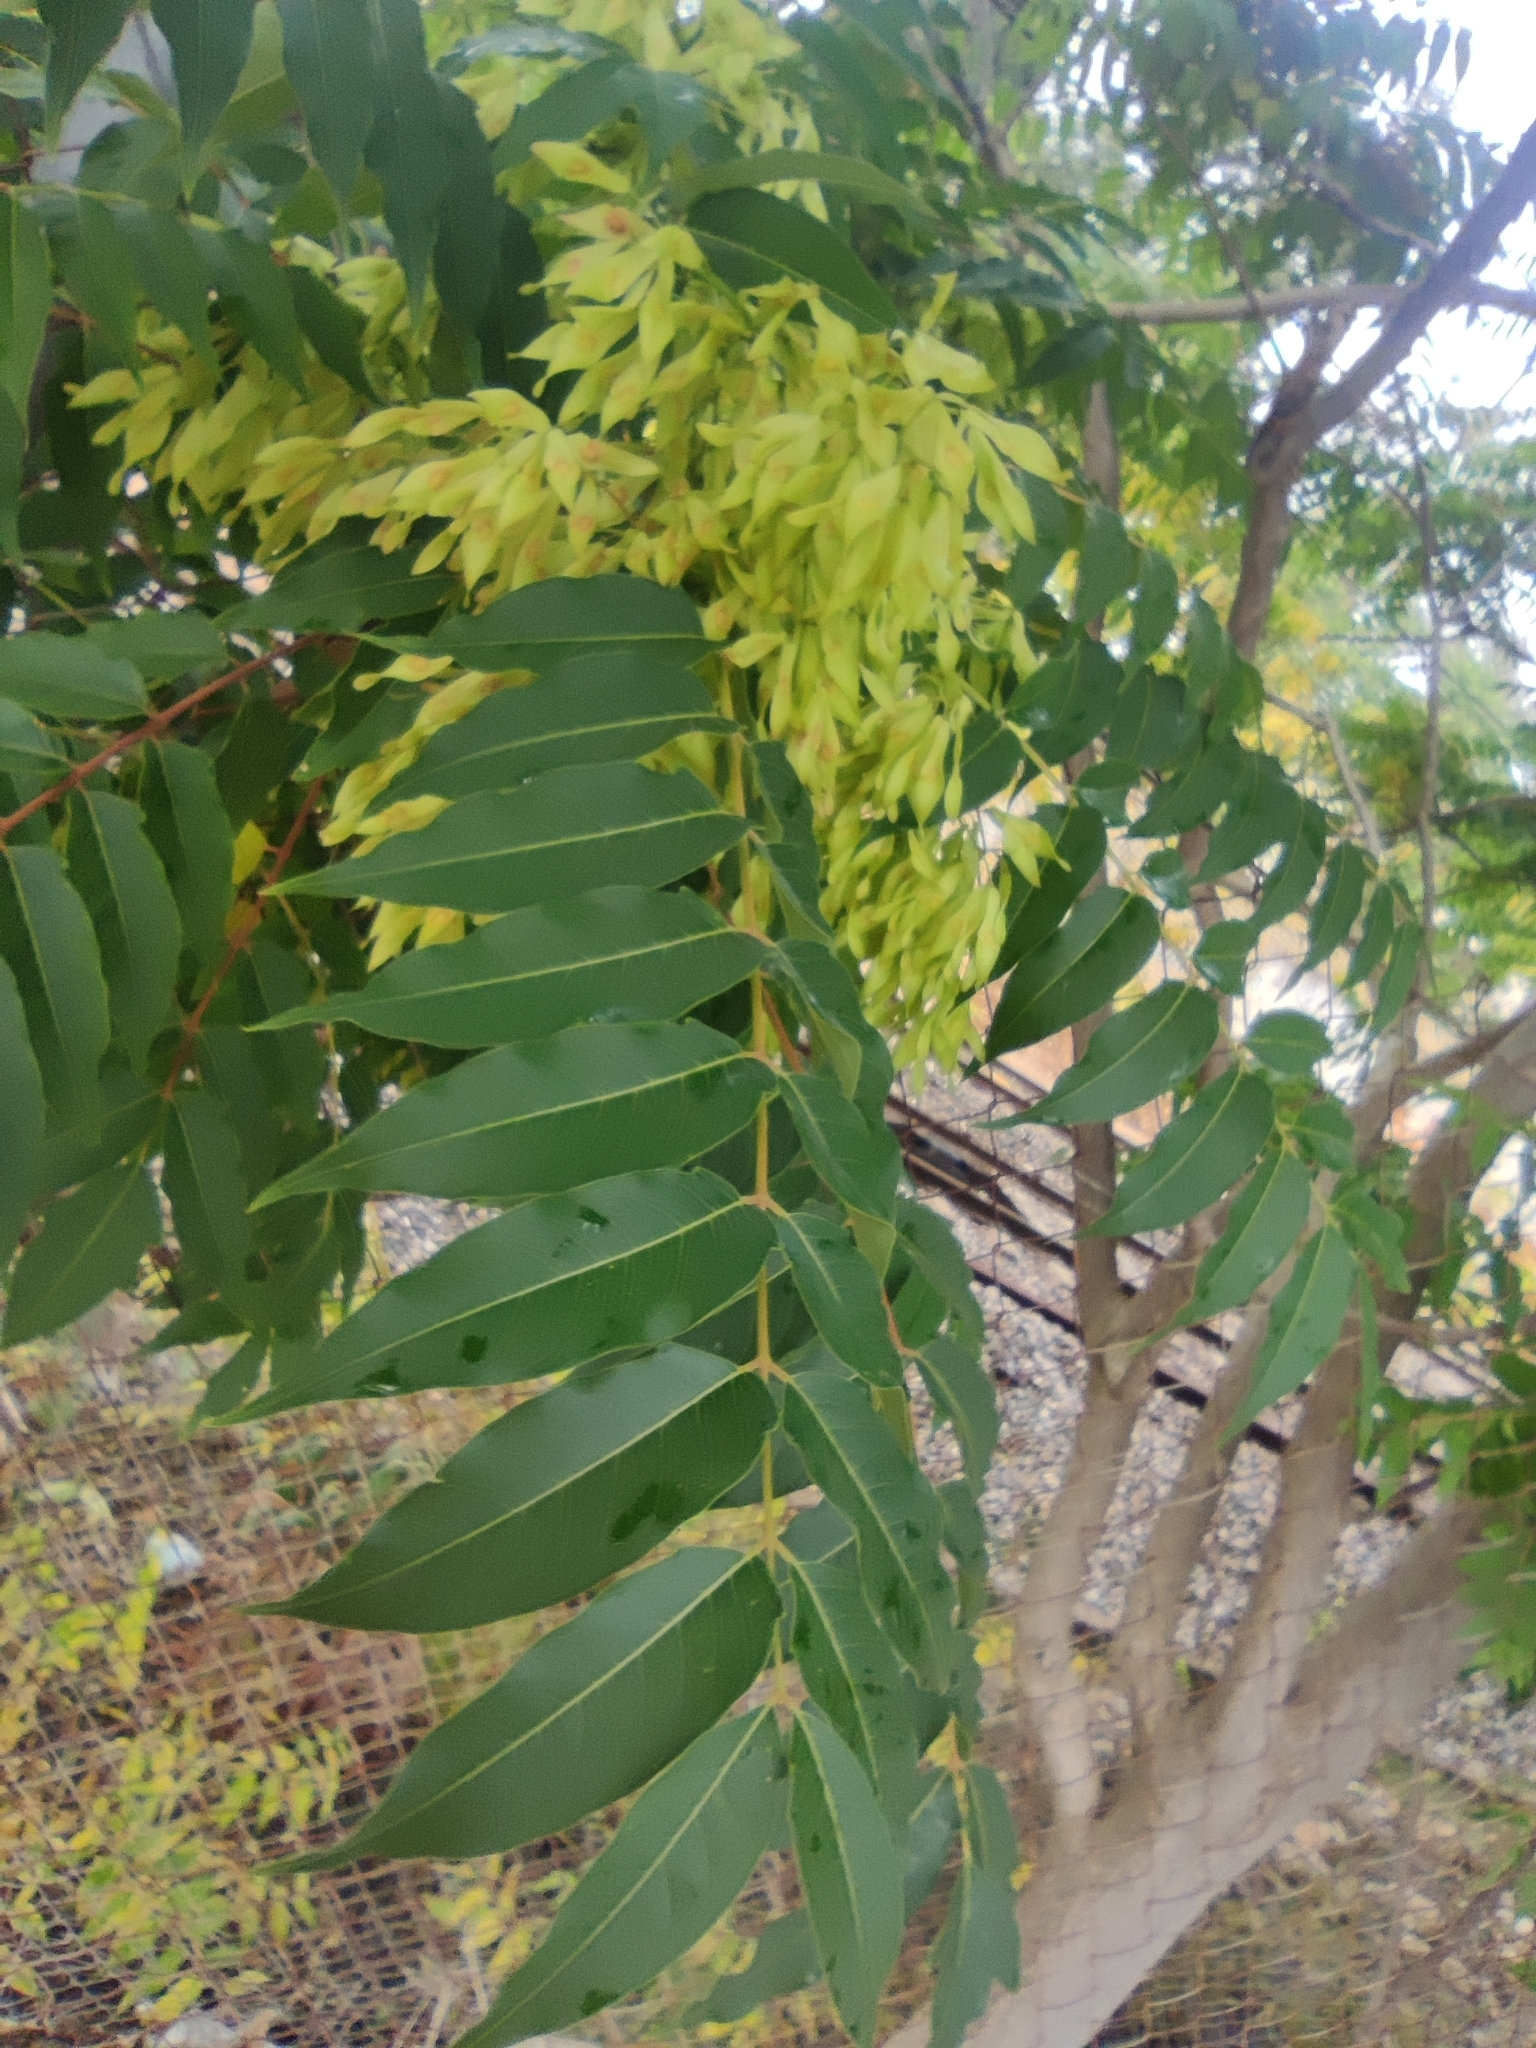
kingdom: Plantae
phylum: Tracheophyta
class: Magnoliopsida
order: Sapindales
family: Simaroubaceae
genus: Ailanthus
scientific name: Ailanthus altissima
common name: Tree-of-heaven
